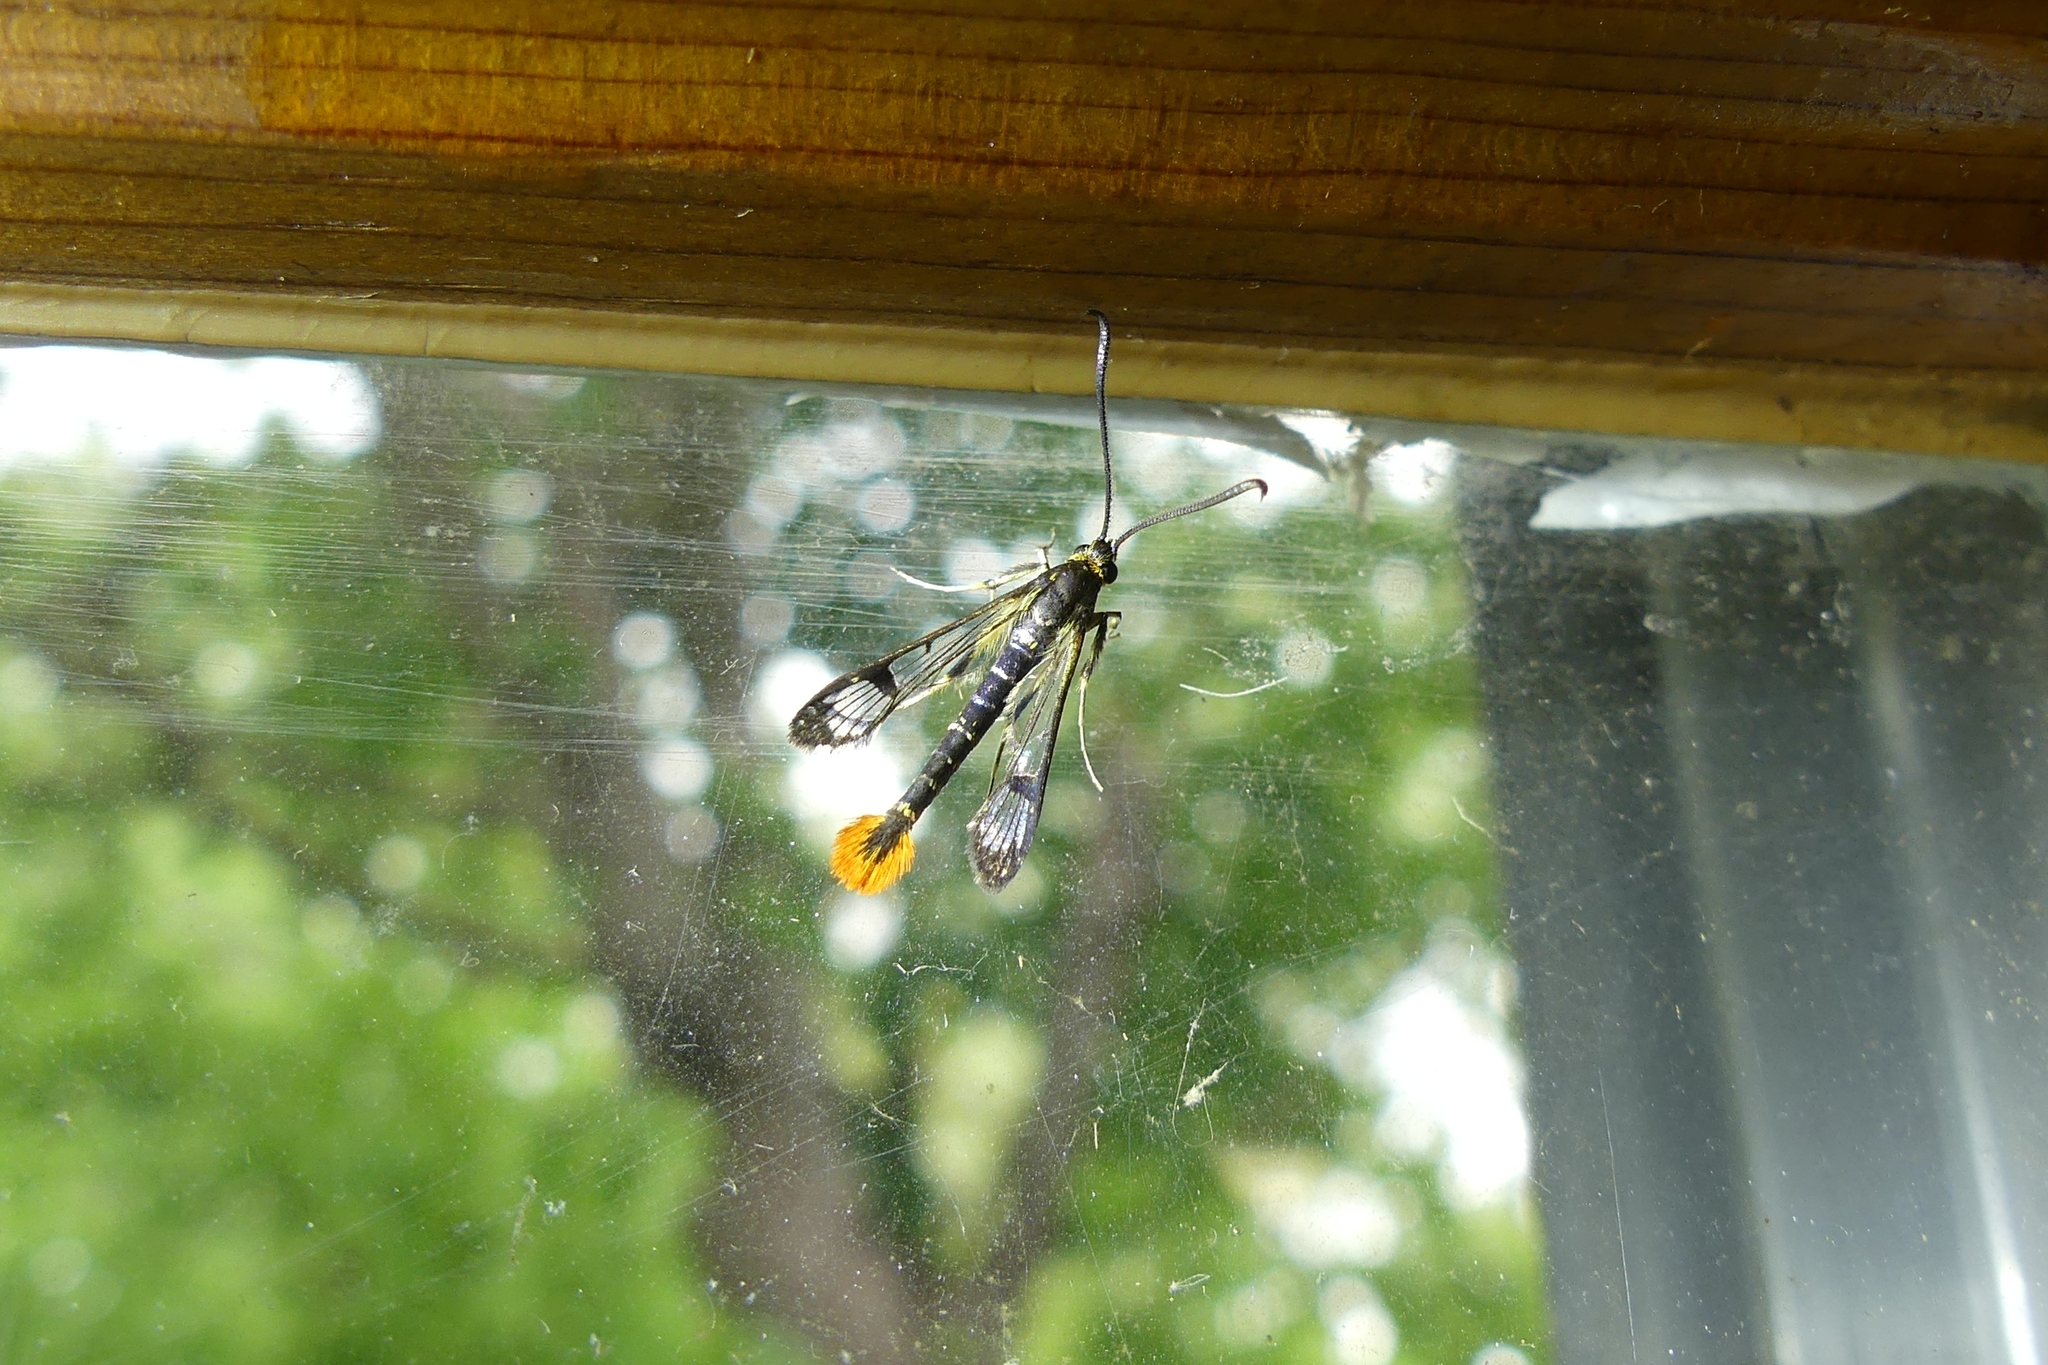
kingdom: Animalia
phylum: Arthropoda
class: Insecta
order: Lepidoptera
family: Sesiidae
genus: Synanthedon
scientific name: Synanthedon acerrubri
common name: Maple clearwing moth
